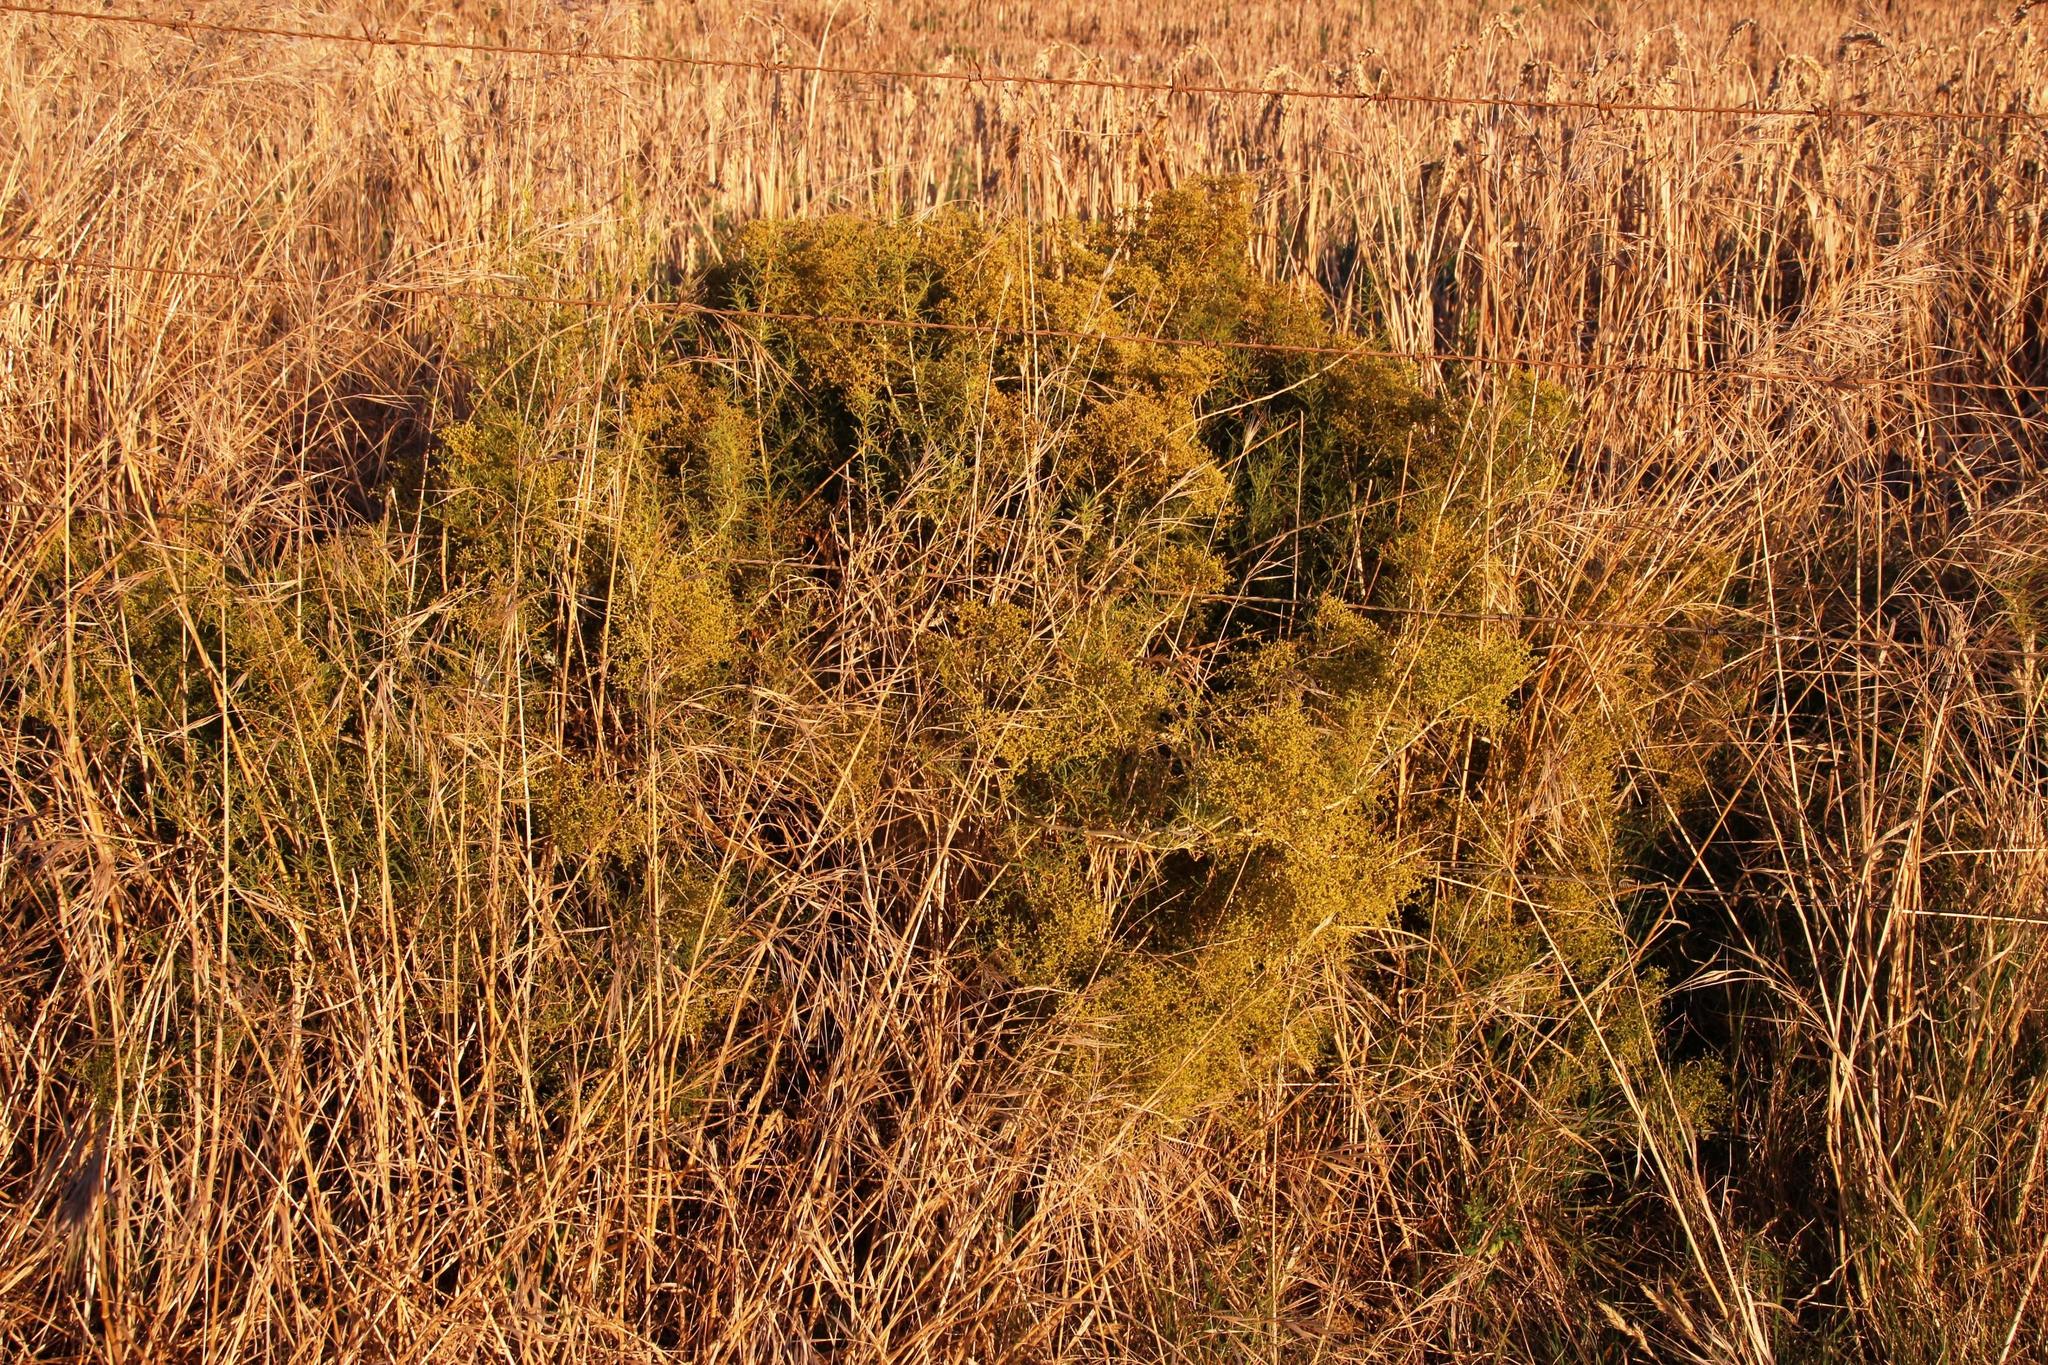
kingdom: Plantae
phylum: Tracheophyta
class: Magnoliopsida
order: Caryophyllales
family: Aizoaceae
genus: Aizoon
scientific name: Aizoon africanum
